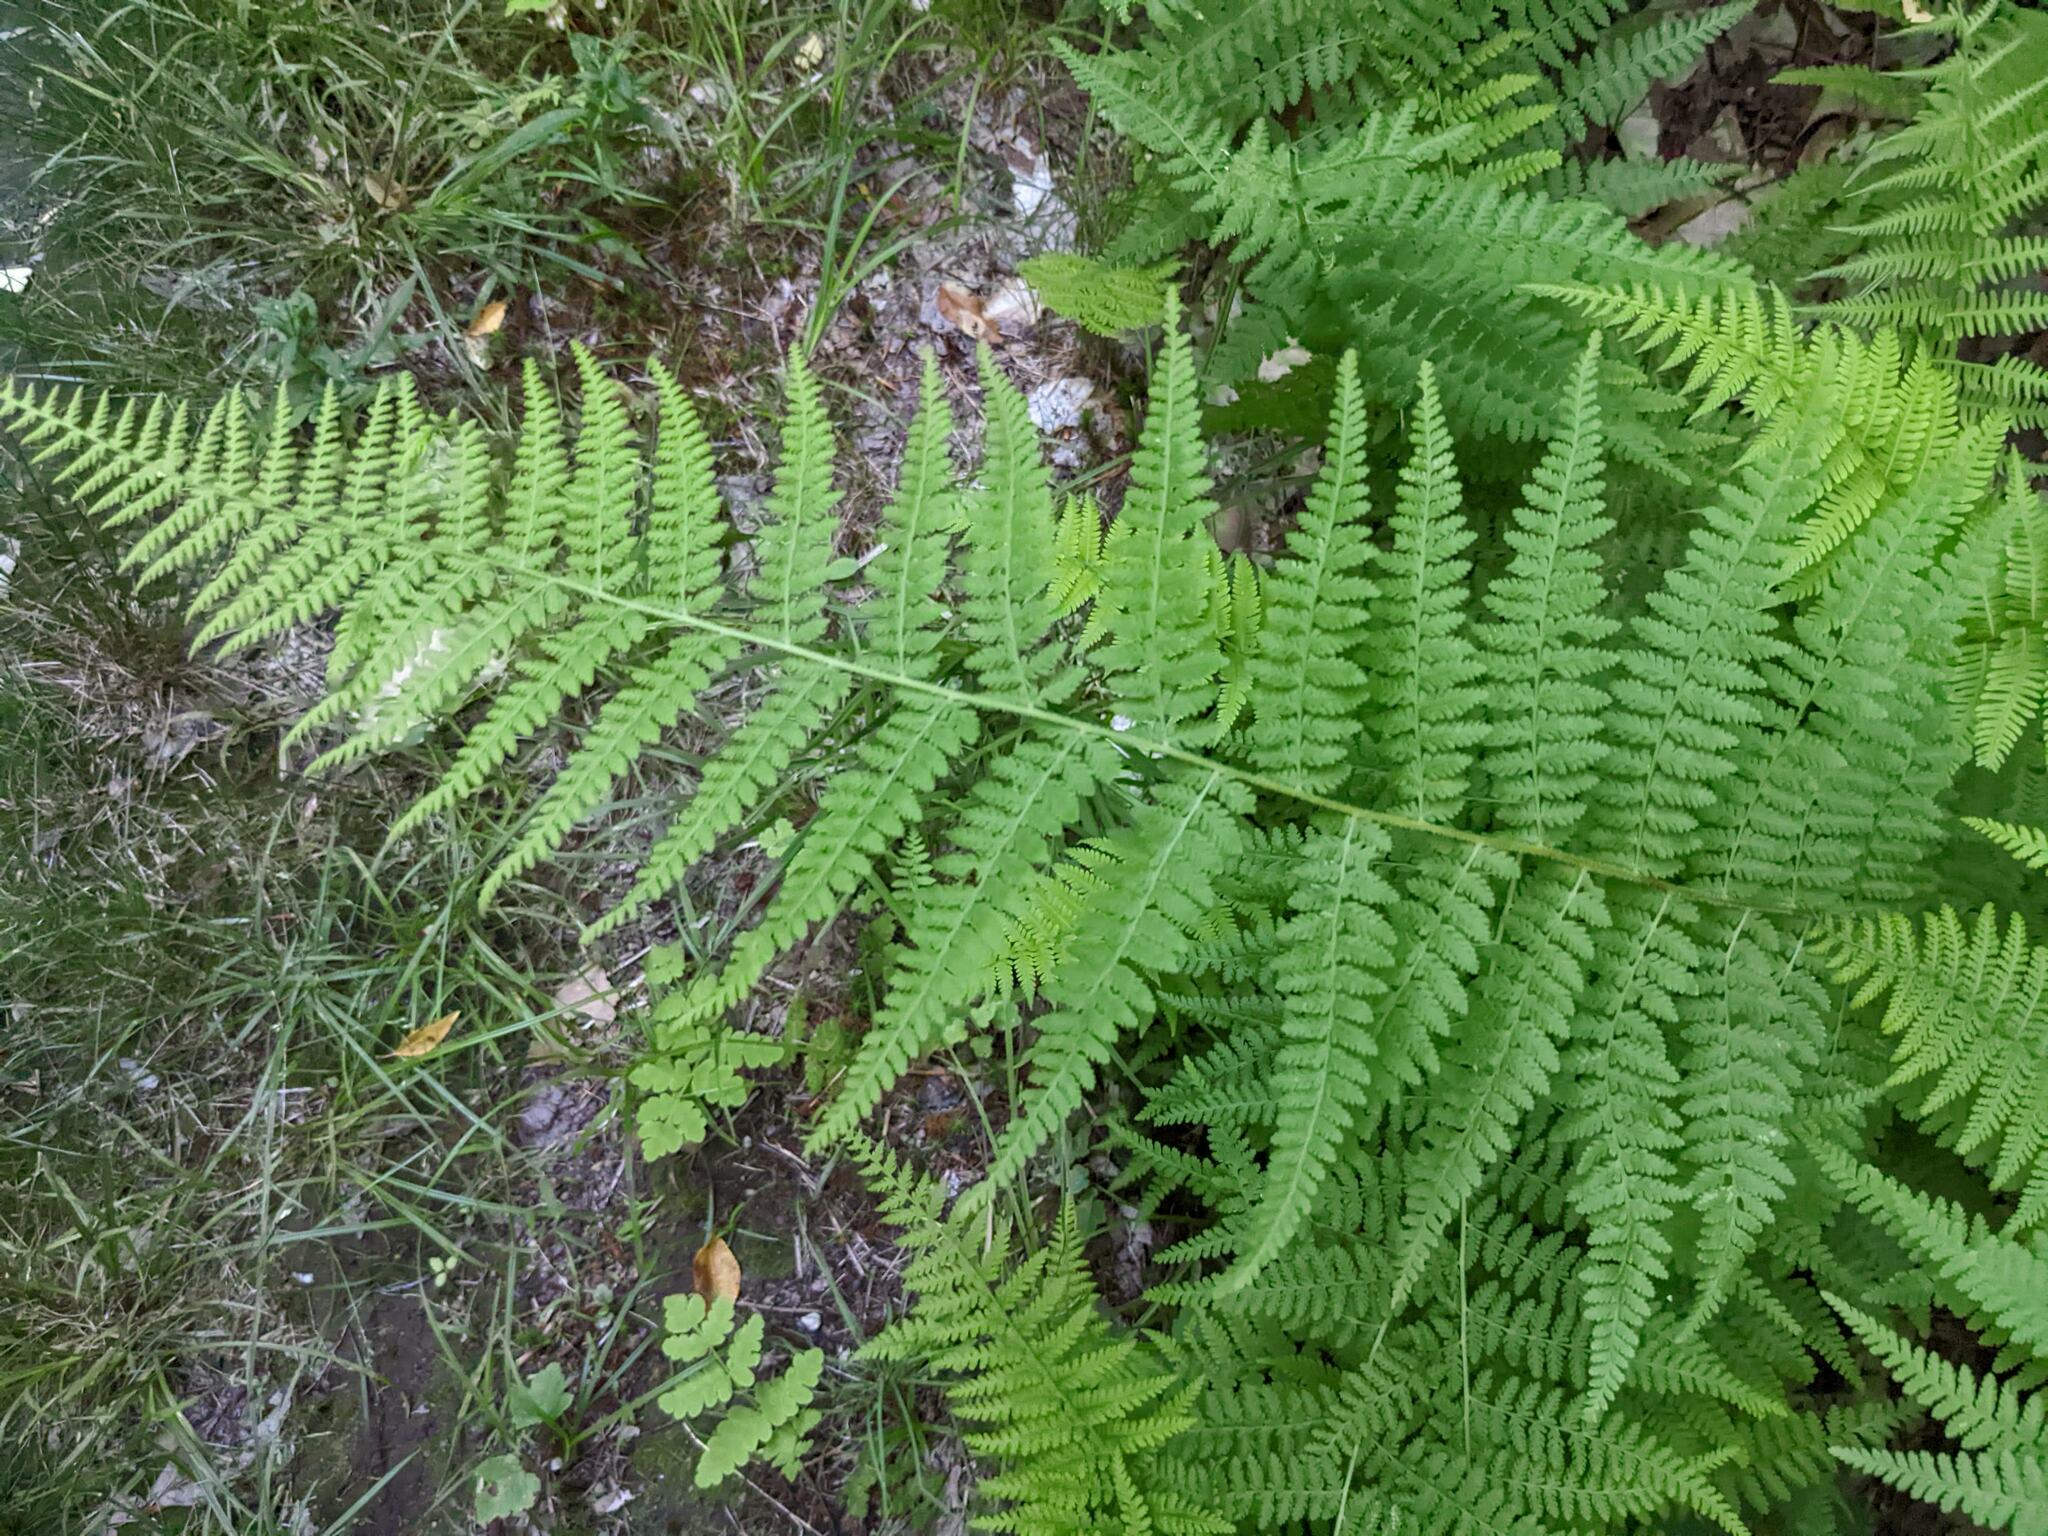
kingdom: Plantae
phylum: Tracheophyta
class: Polypodiopsida
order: Polypodiales
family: Dennstaedtiaceae
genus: Sitobolium
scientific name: Sitobolium punctilobum
